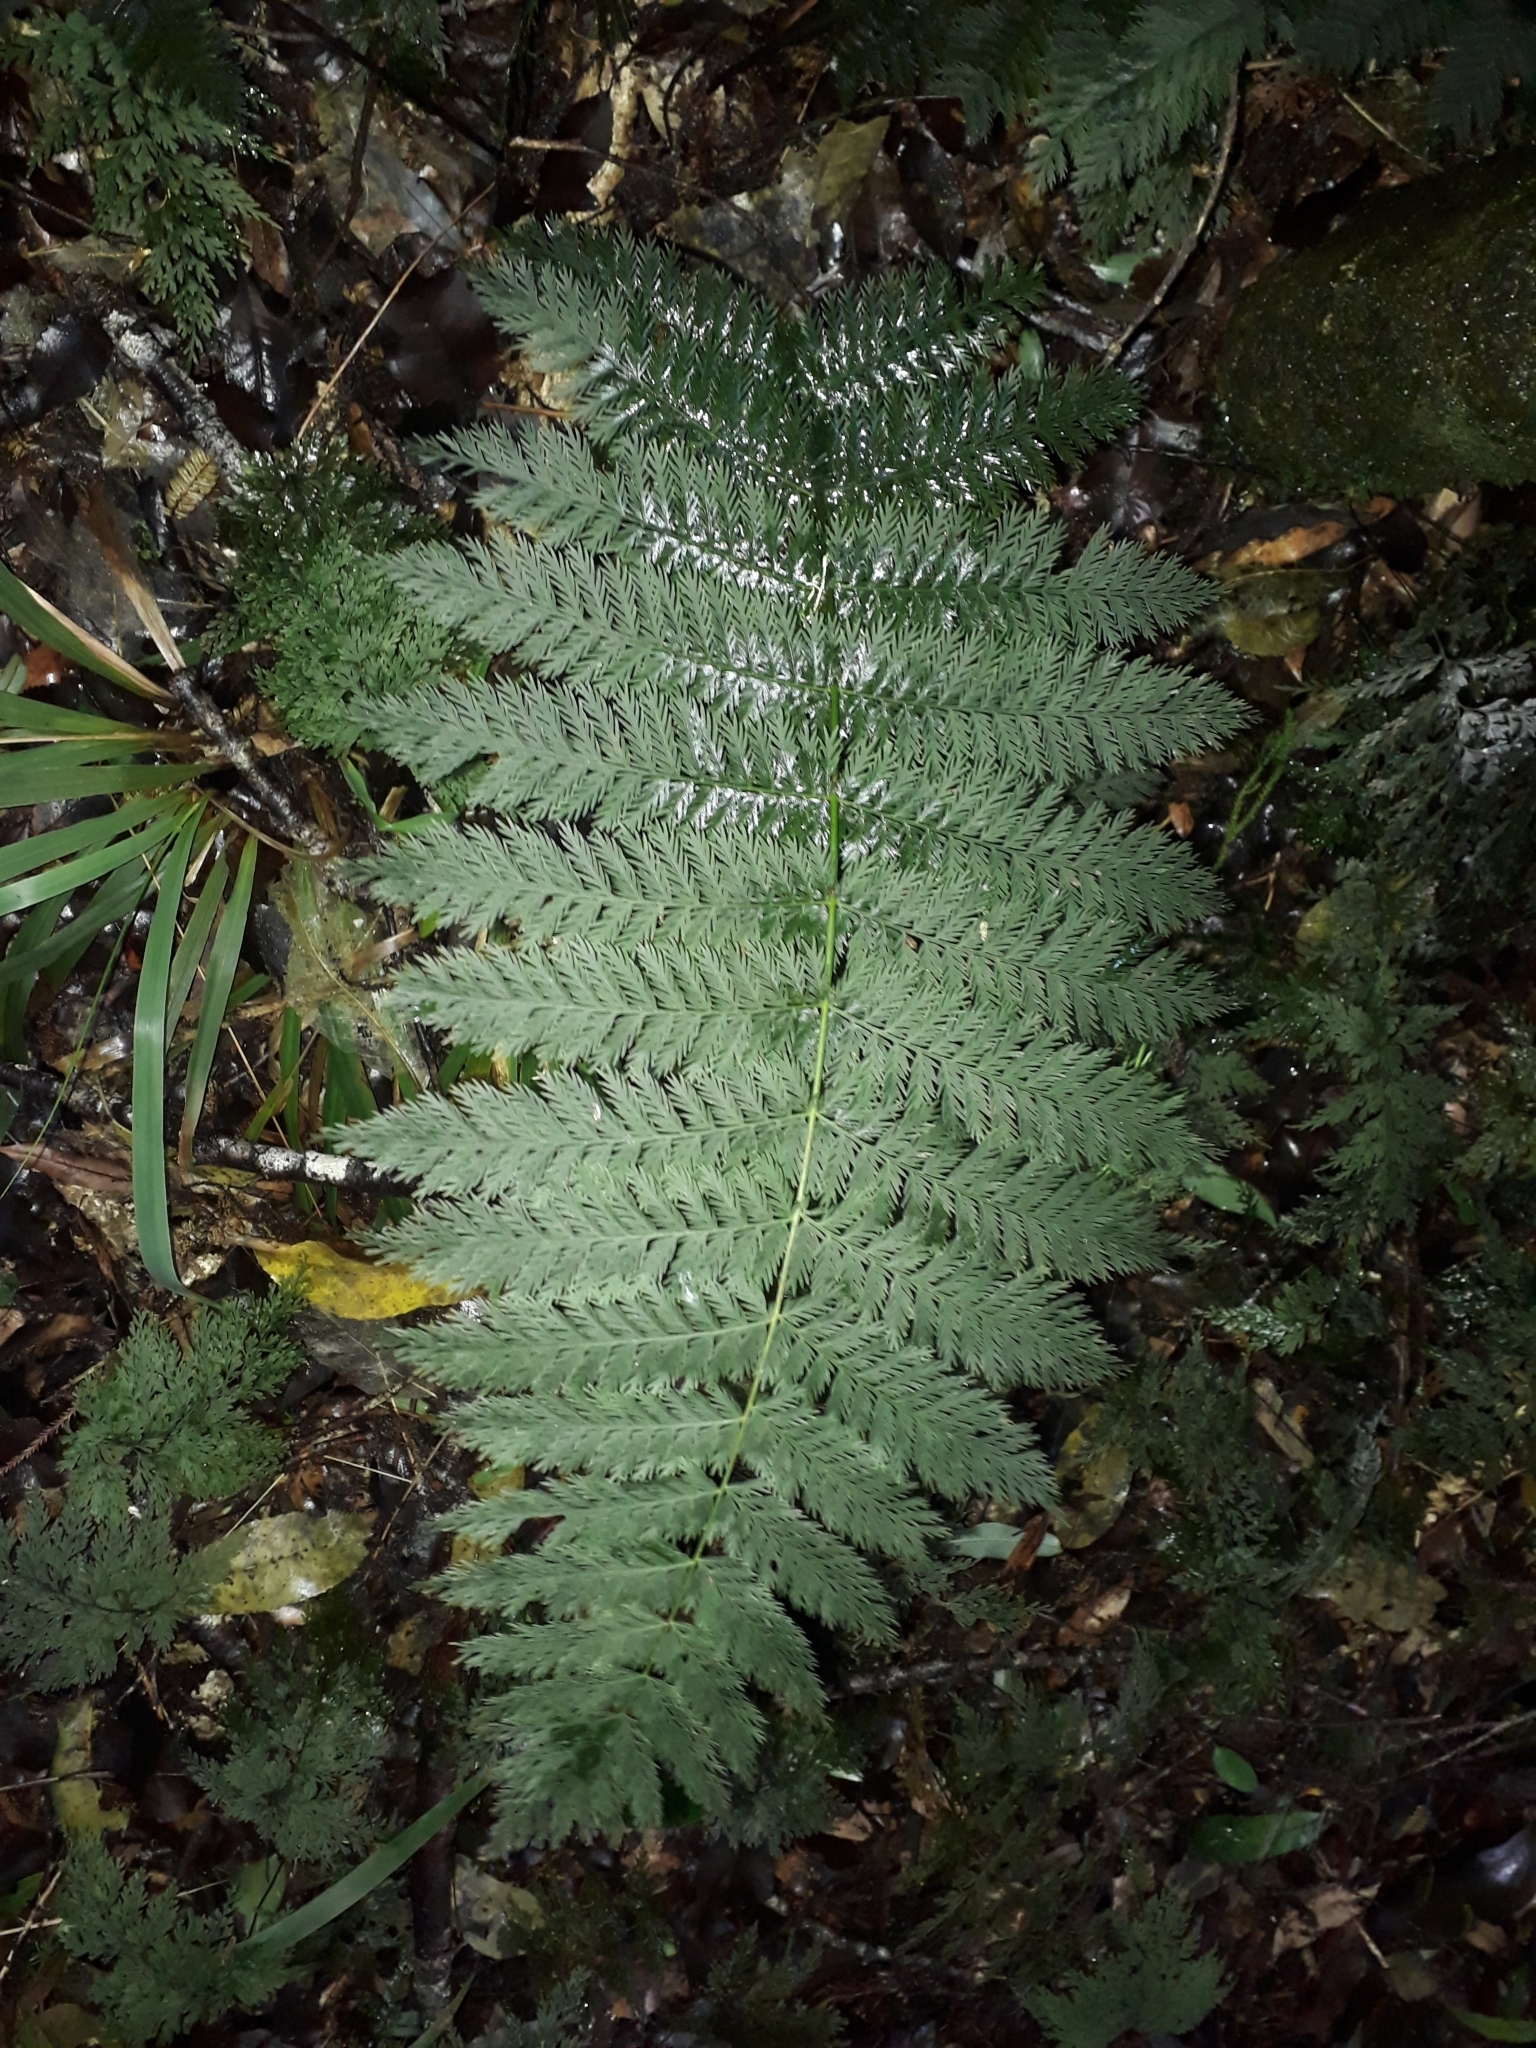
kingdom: Plantae
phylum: Tracheophyta
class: Polypodiopsida
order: Osmundales
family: Osmundaceae
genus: Leptopteris
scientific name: Leptopteris hymenophylloides
